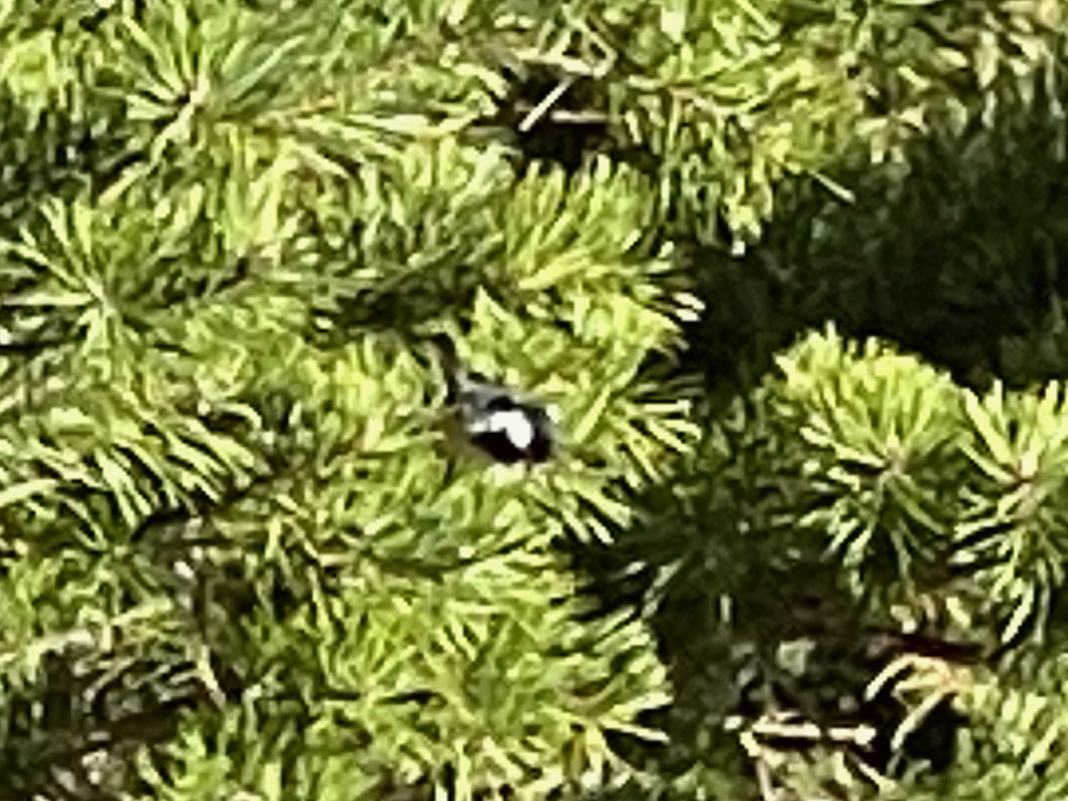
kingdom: Animalia
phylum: Chordata
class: Aves
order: Passeriformes
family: Paridae
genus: Periparus
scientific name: Periparus ater
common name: Coal tit
